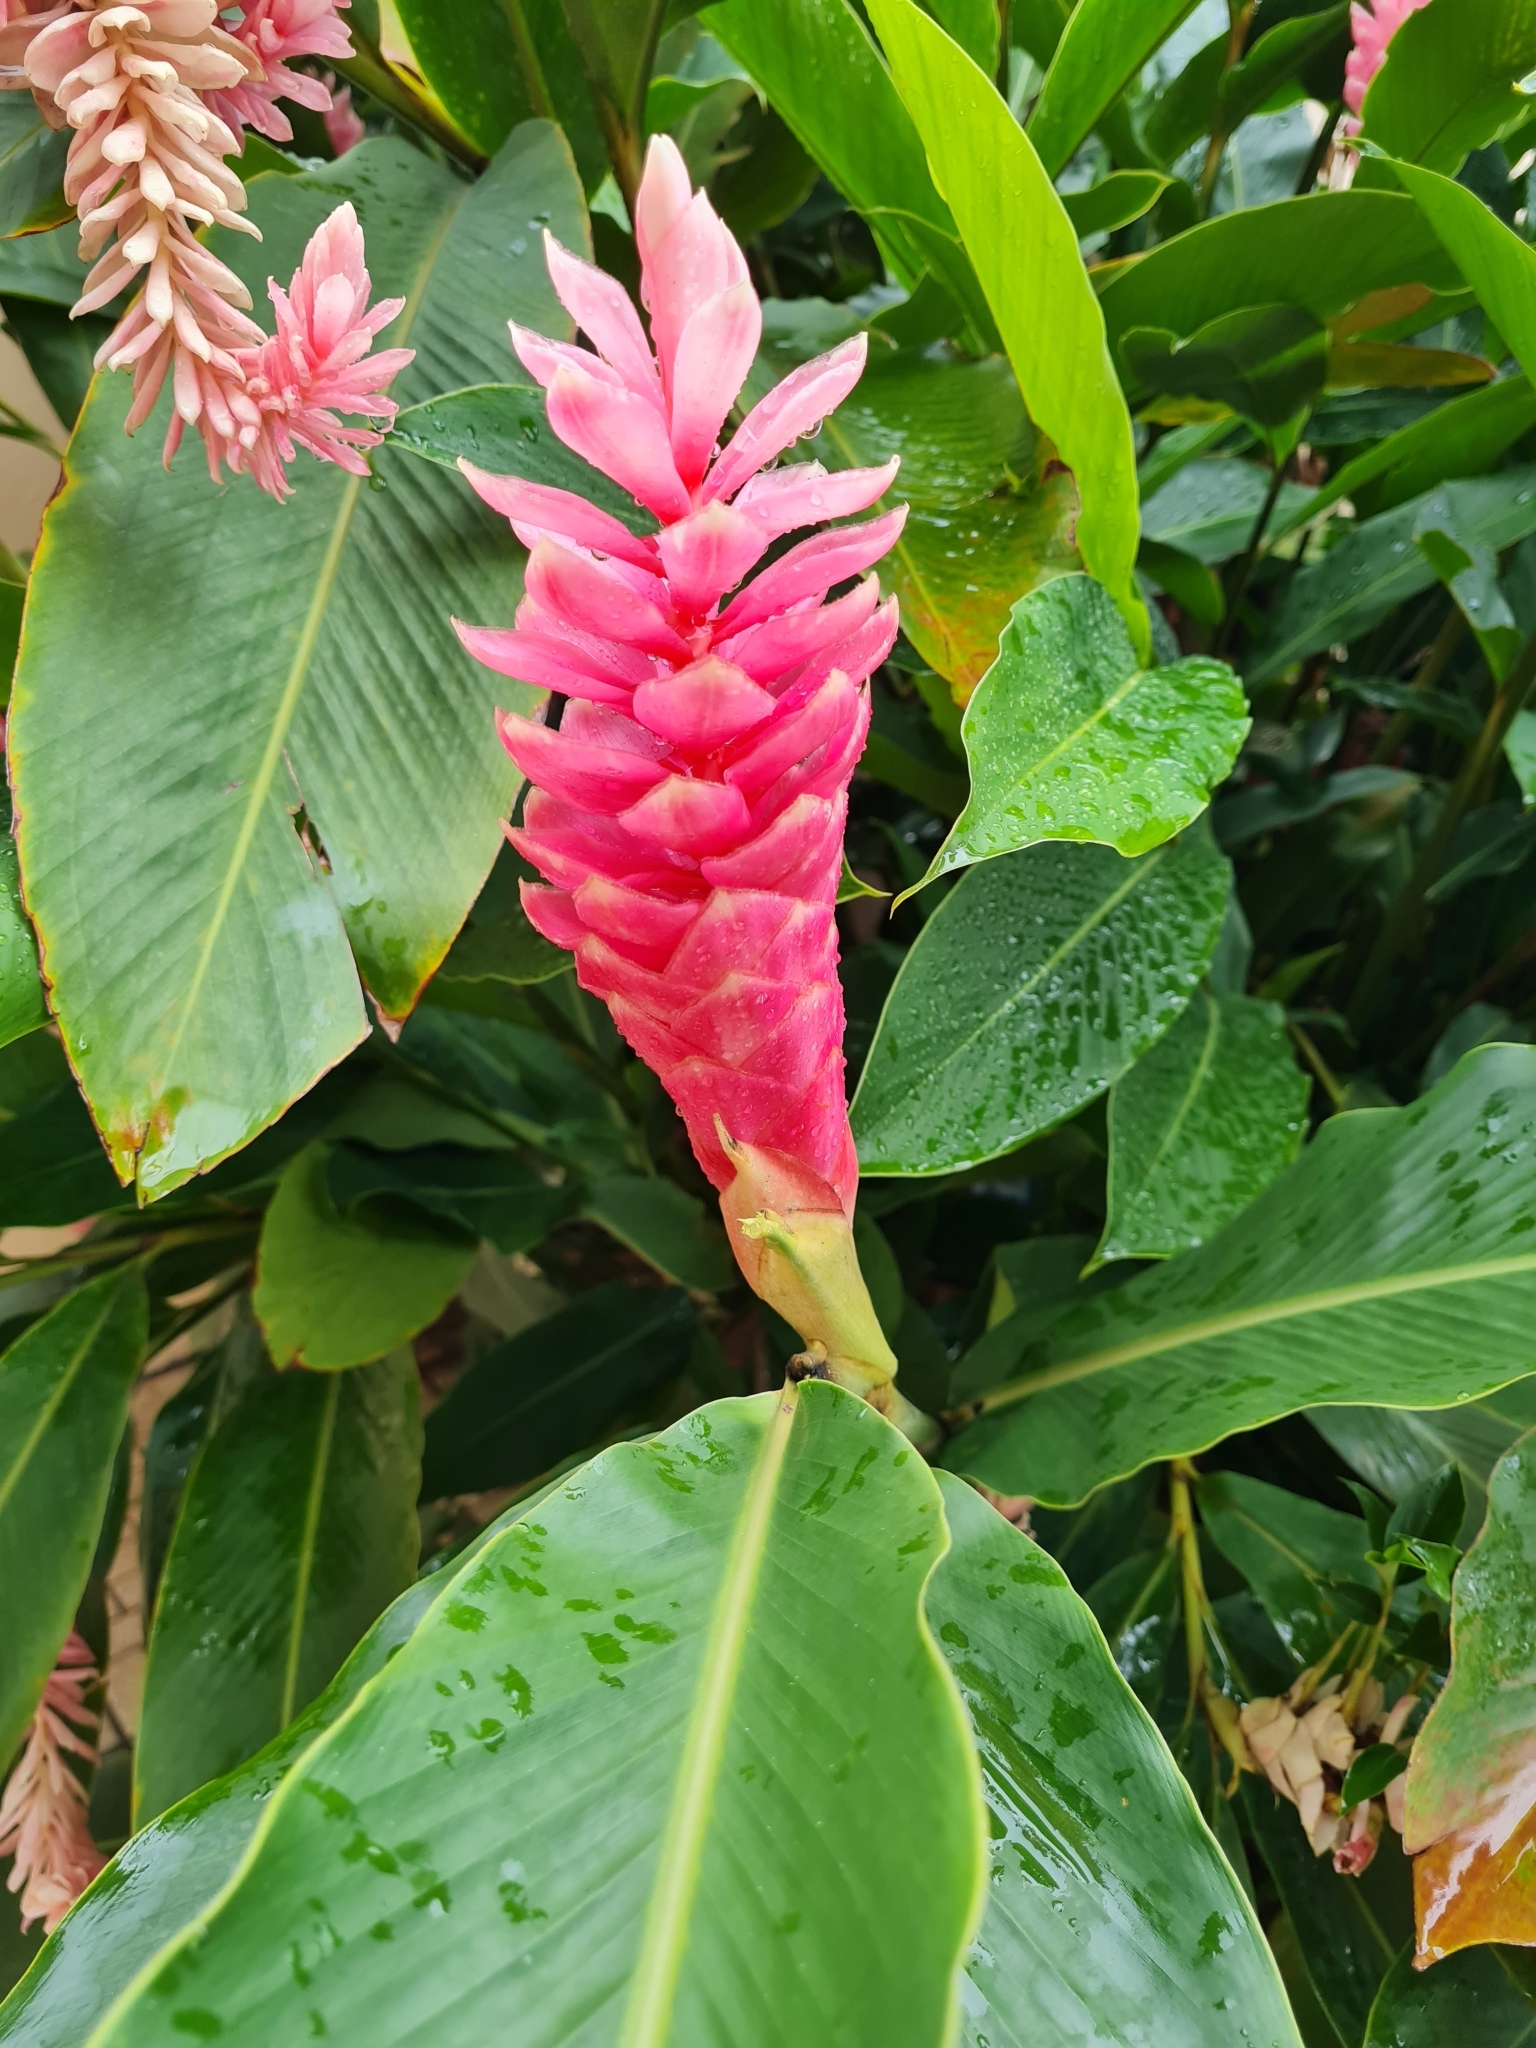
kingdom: Plantae
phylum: Tracheophyta
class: Liliopsida
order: Zingiberales
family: Zingiberaceae
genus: Alpinia
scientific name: Alpinia purpurata
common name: Red ginger
